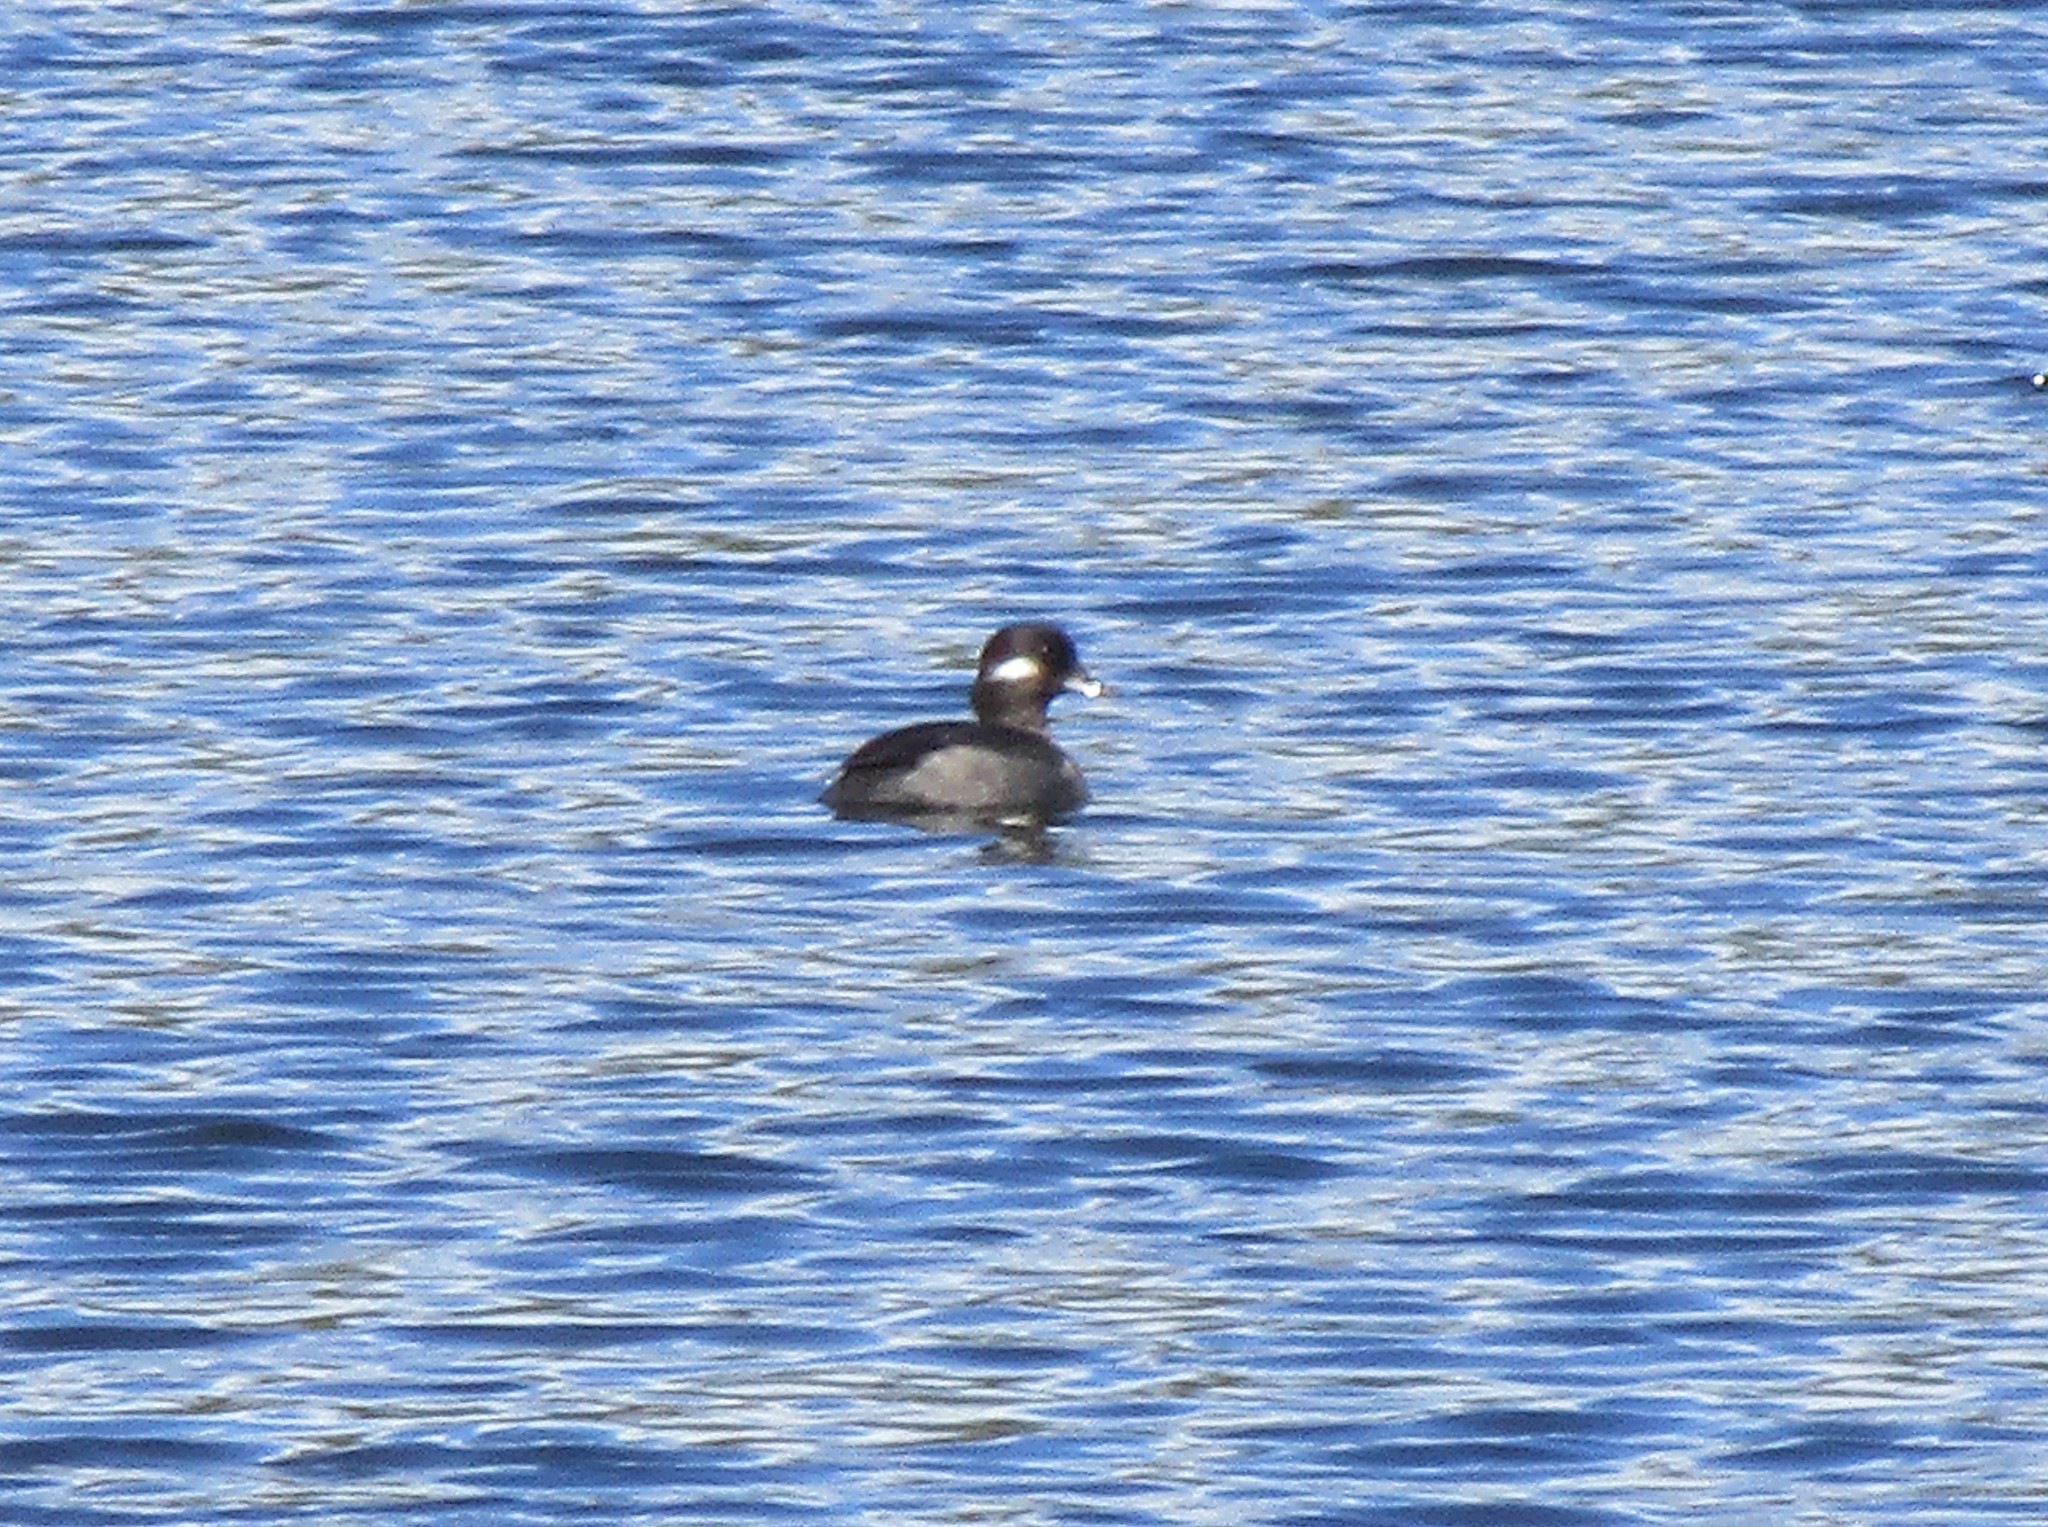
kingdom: Animalia
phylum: Chordata
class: Aves
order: Anseriformes
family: Anatidae
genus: Bucephala
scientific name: Bucephala albeola
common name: Bufflehead
